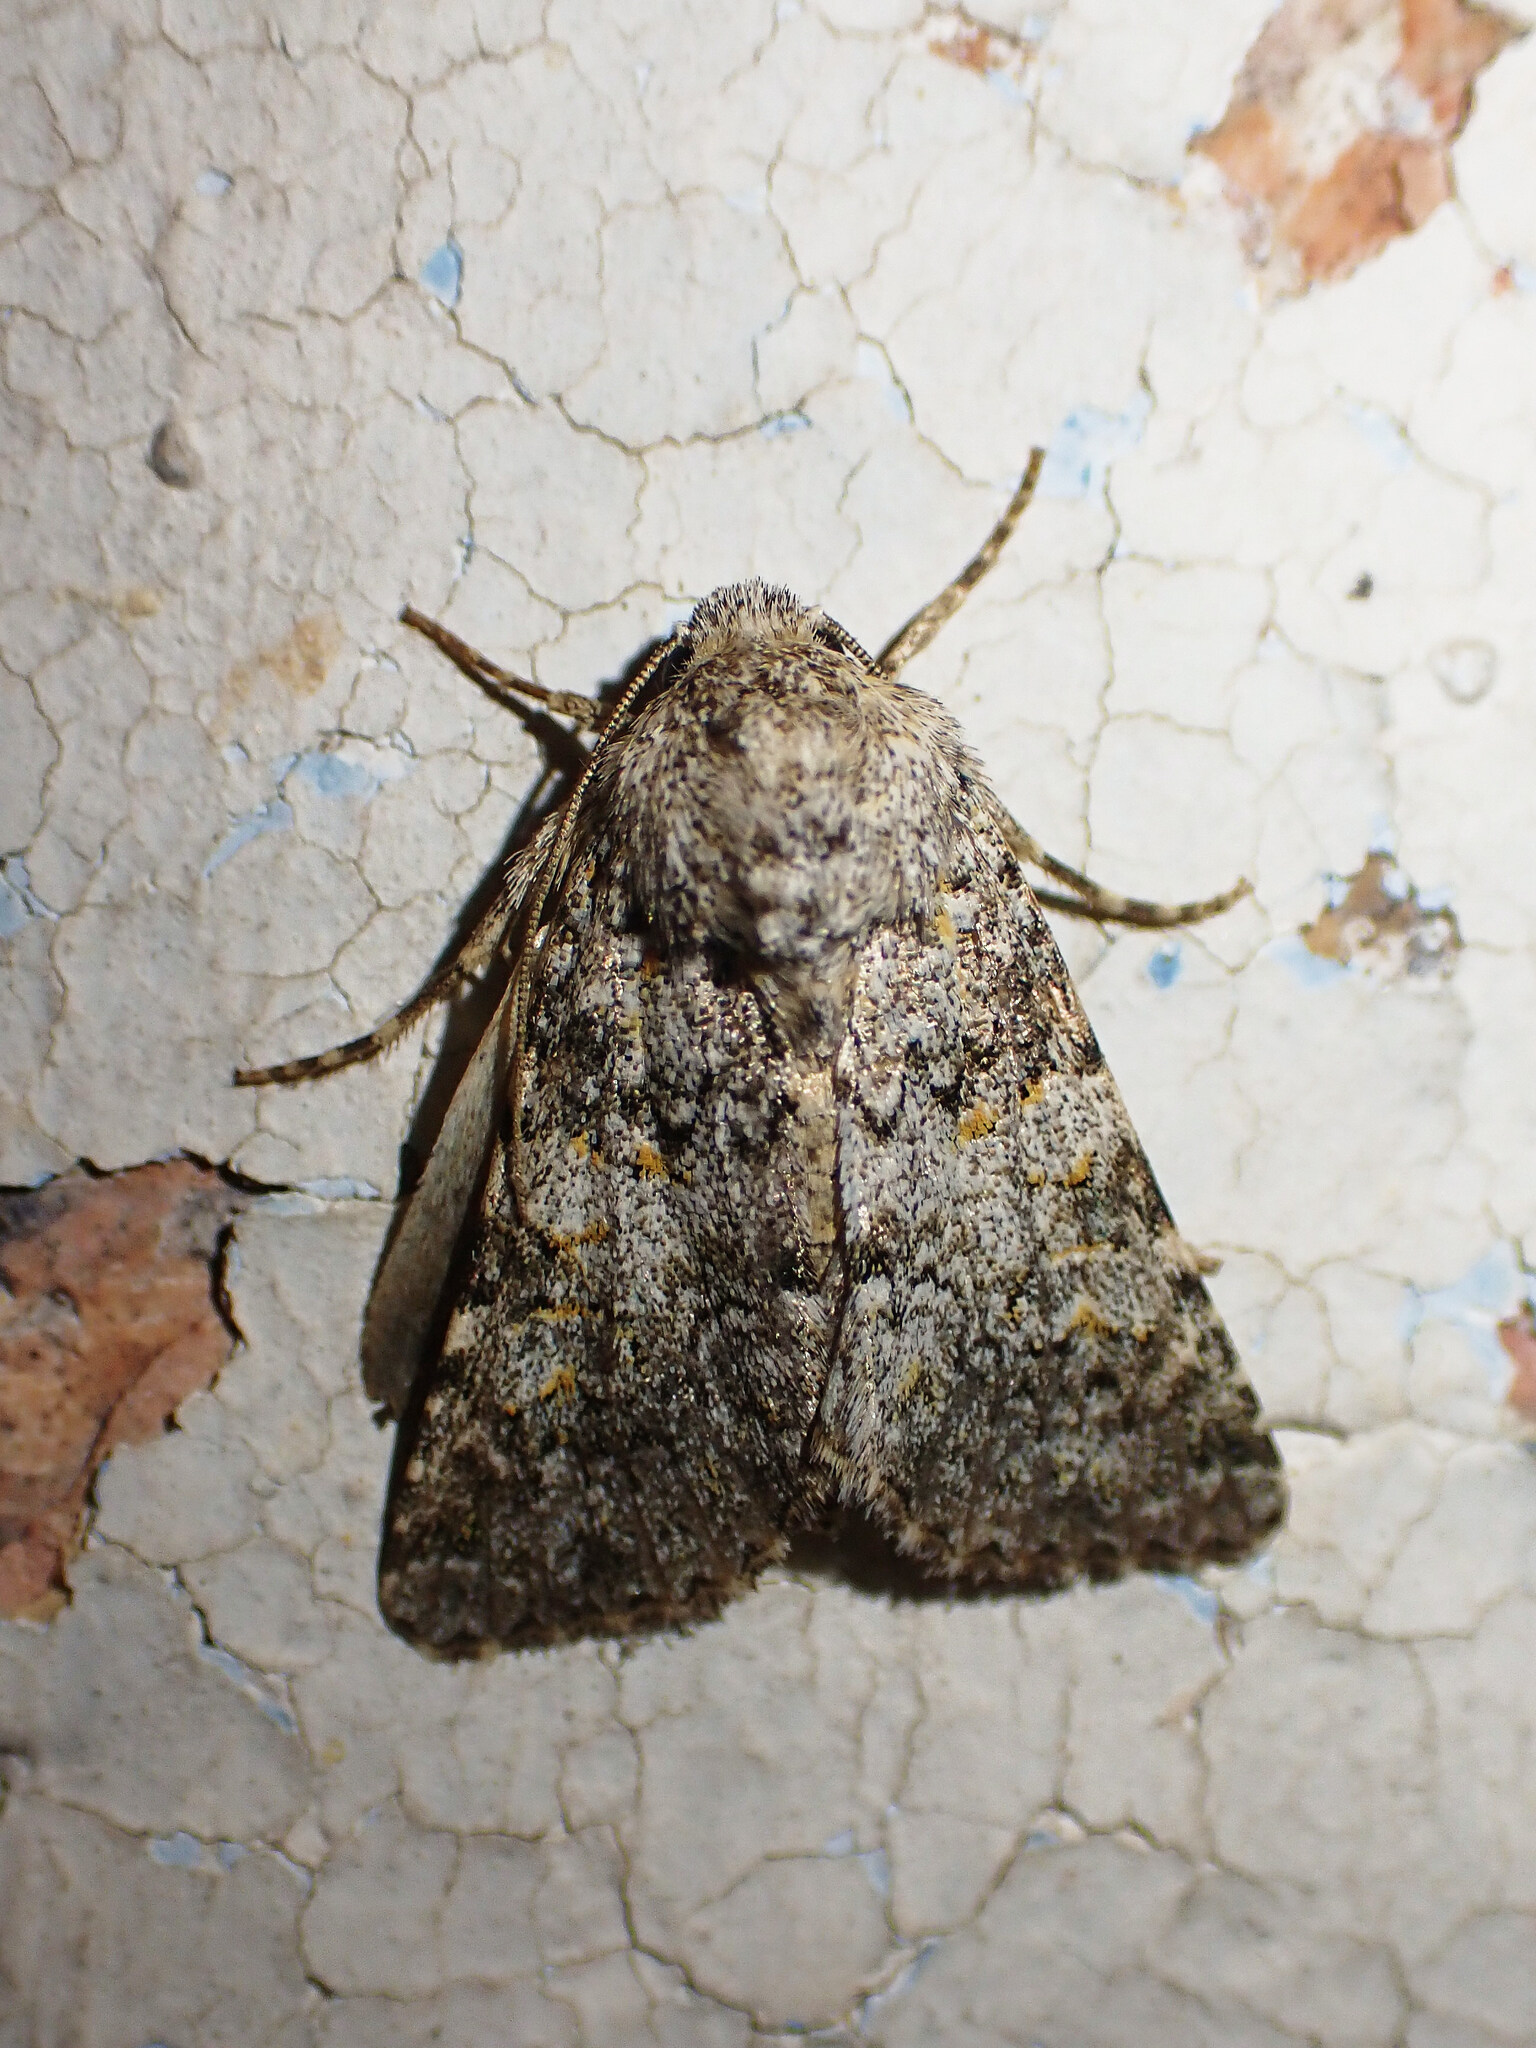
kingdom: Animalia
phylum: Arthropoda
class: Insecta
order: Lepidoptera
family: Noctuidae
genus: Hecatera
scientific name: Hecatera dysodea
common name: Small ranunculus
